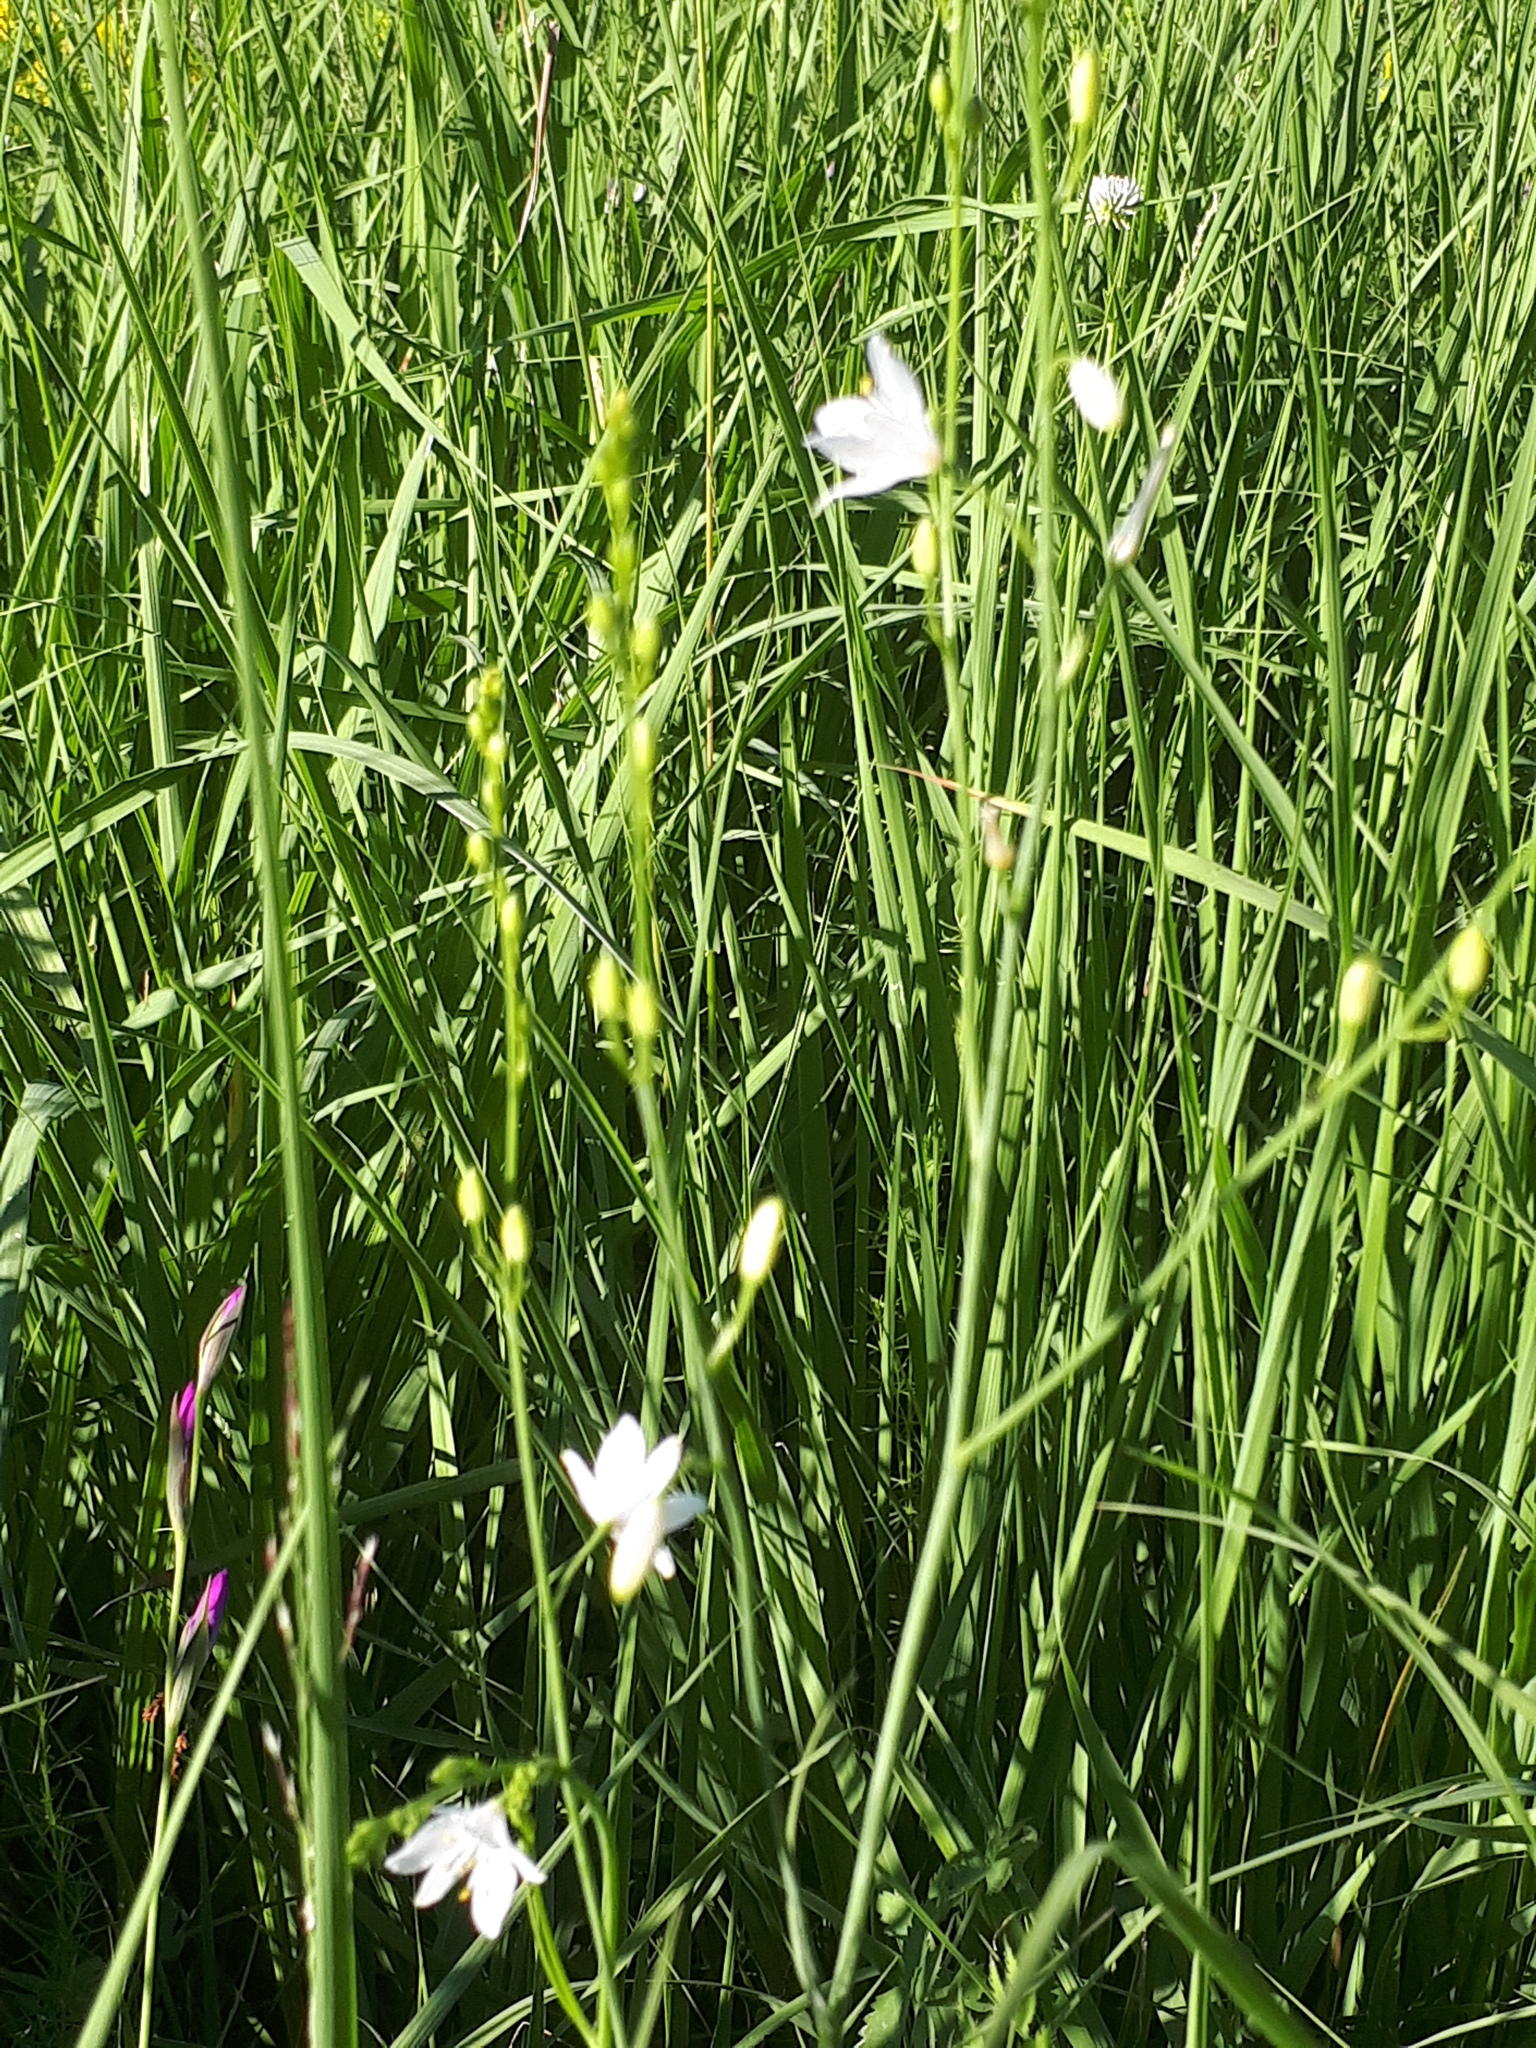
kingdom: Plantae
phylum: Tracheophyta
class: Liliopsida
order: Asparagales
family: Asparagaceae
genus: Anthericum
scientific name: Anthericum ramosum
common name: Branched st. bernard's-lily
